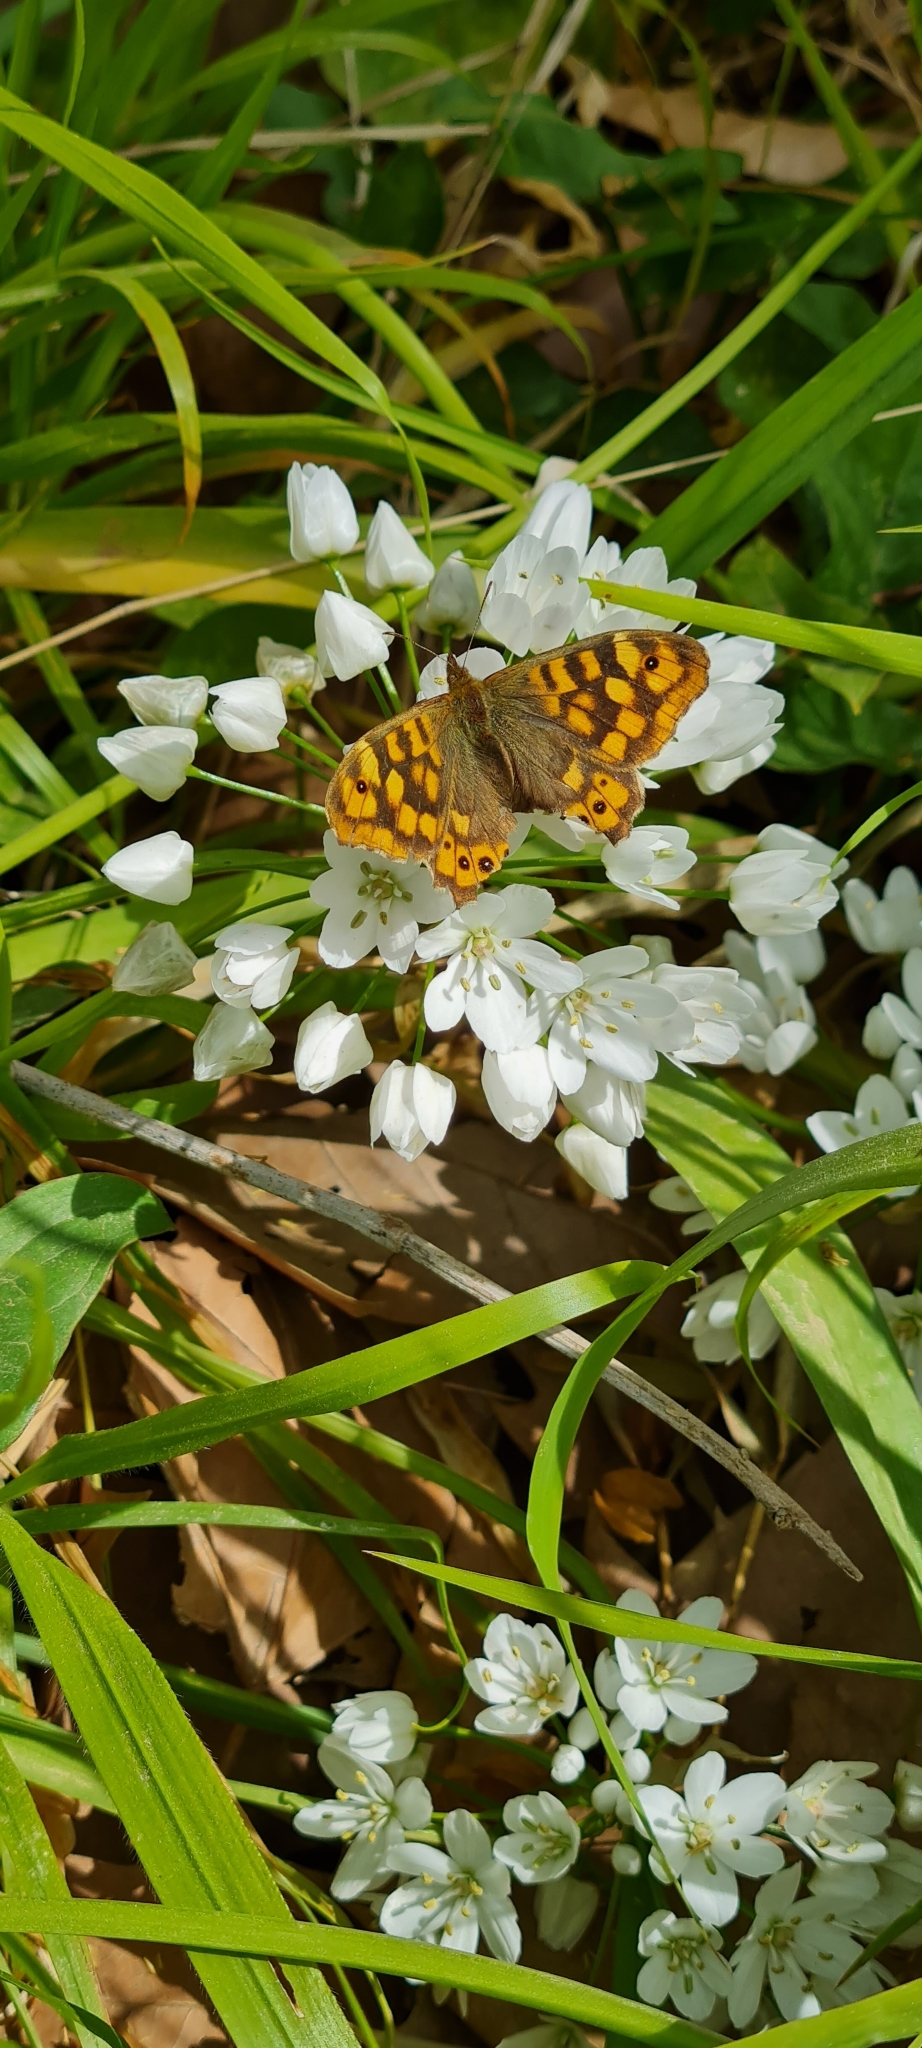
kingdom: Animalia
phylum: Arthropoda
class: Insecta
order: Lepidoptera
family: Nymphalidae
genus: Pararge
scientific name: Pararge aegeria
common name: Speckled wood
